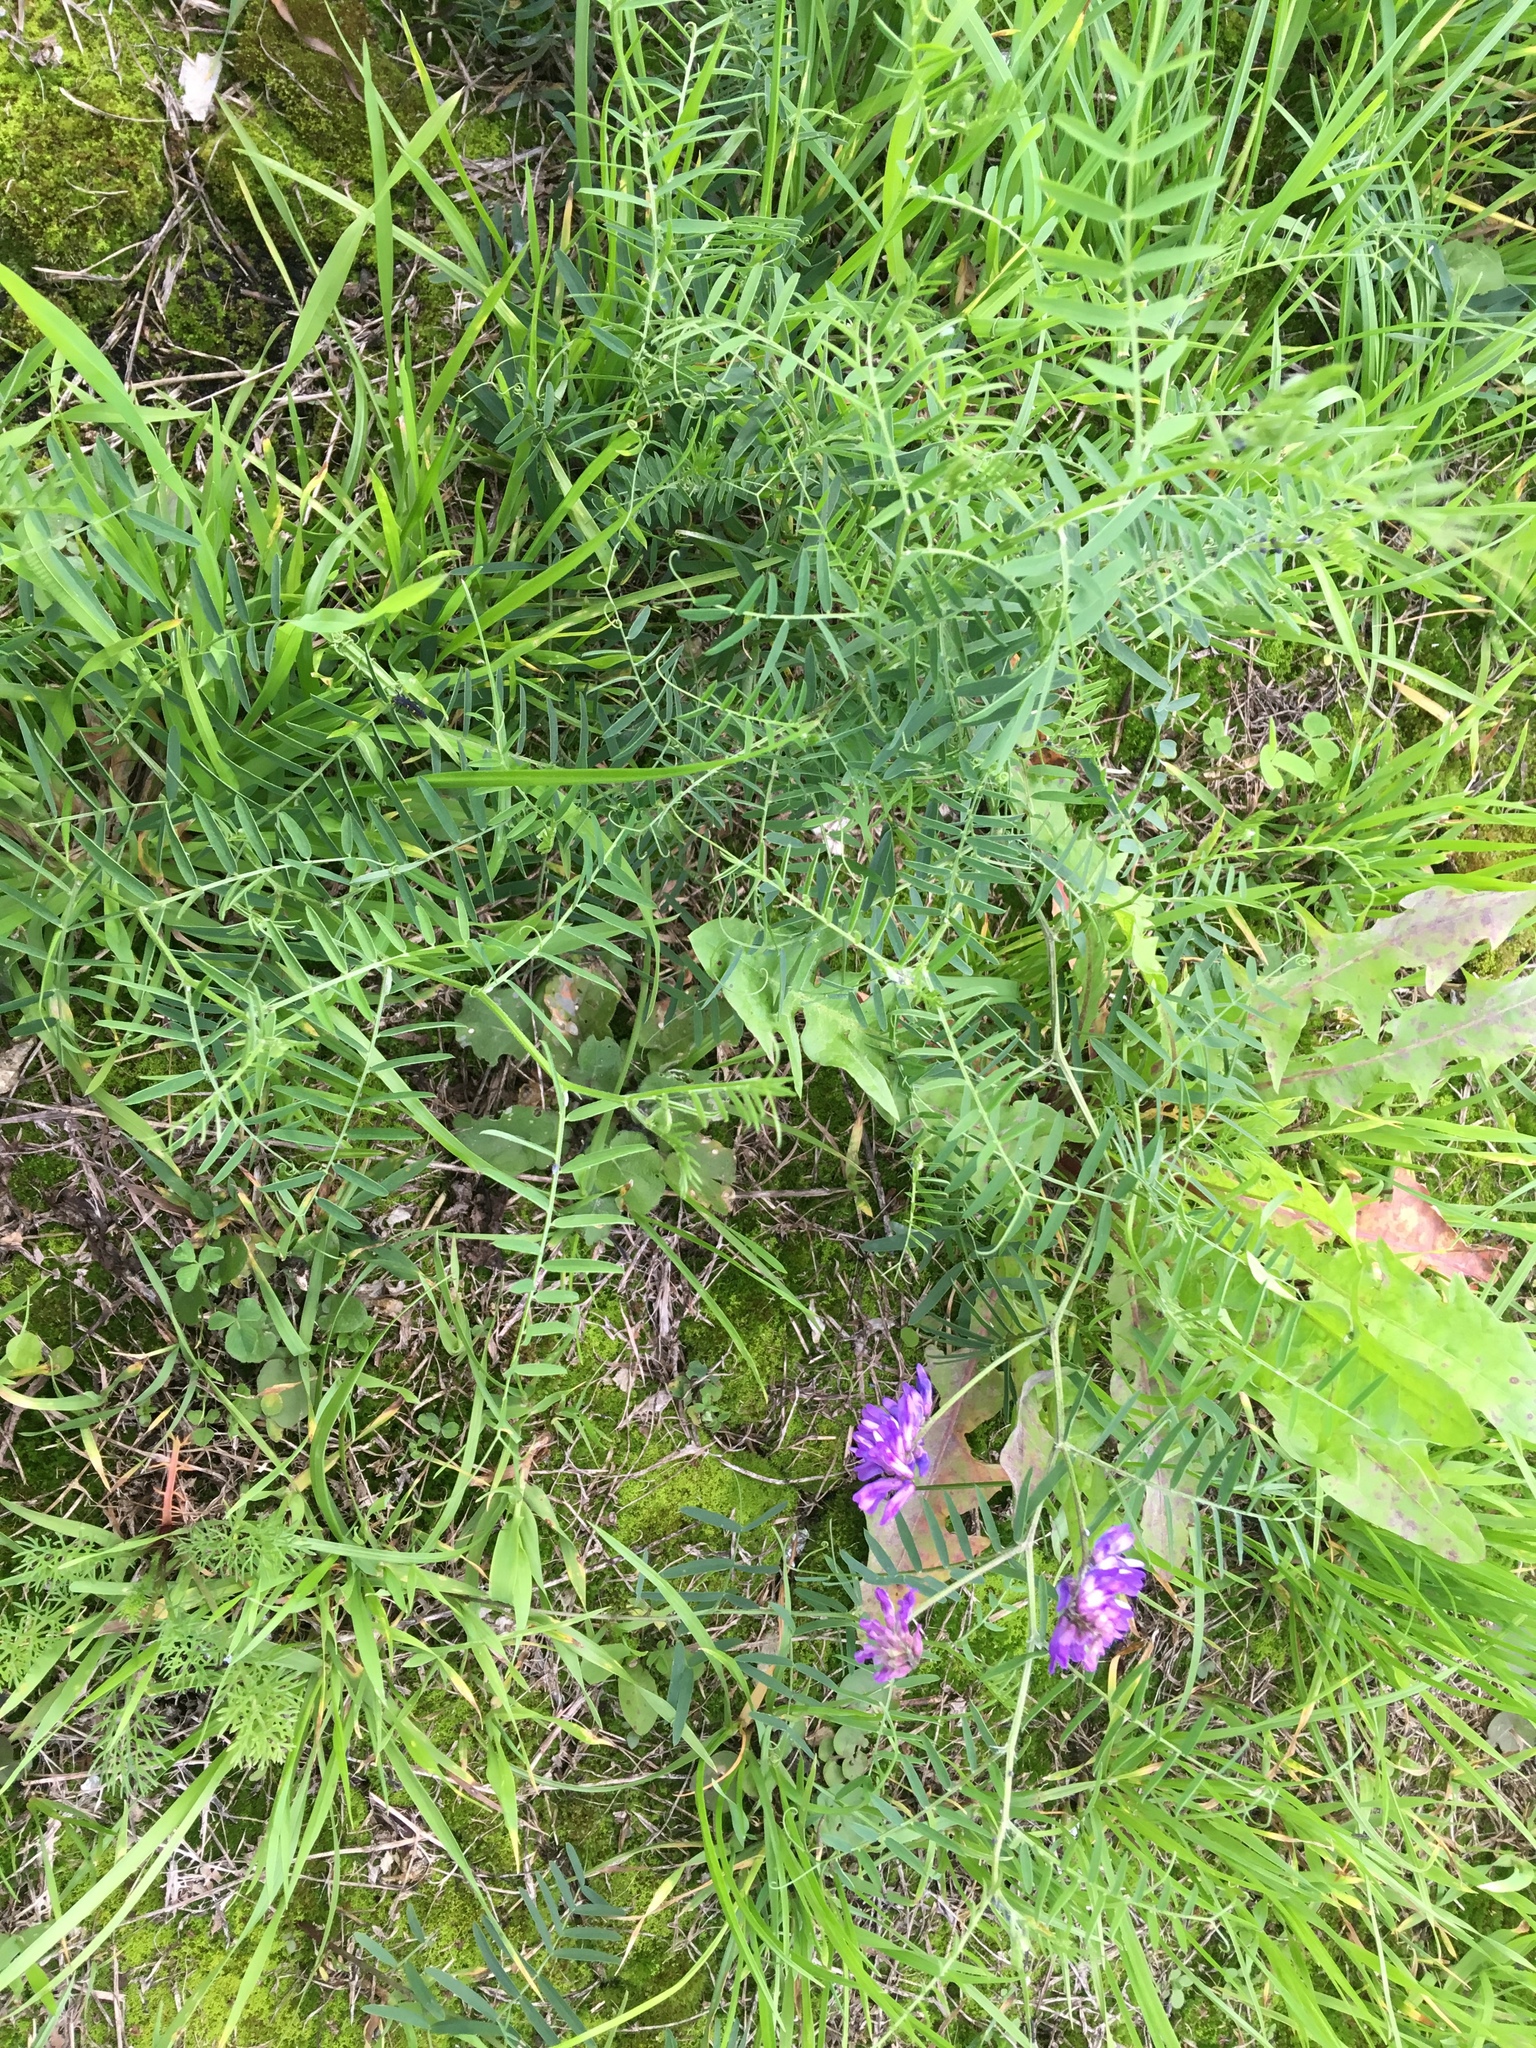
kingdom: Plantae
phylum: Tracheophyta
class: Magnoliopsida
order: Fabales
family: Fabaceae
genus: Vicia
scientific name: Vicia cracca
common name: Bird vetch
